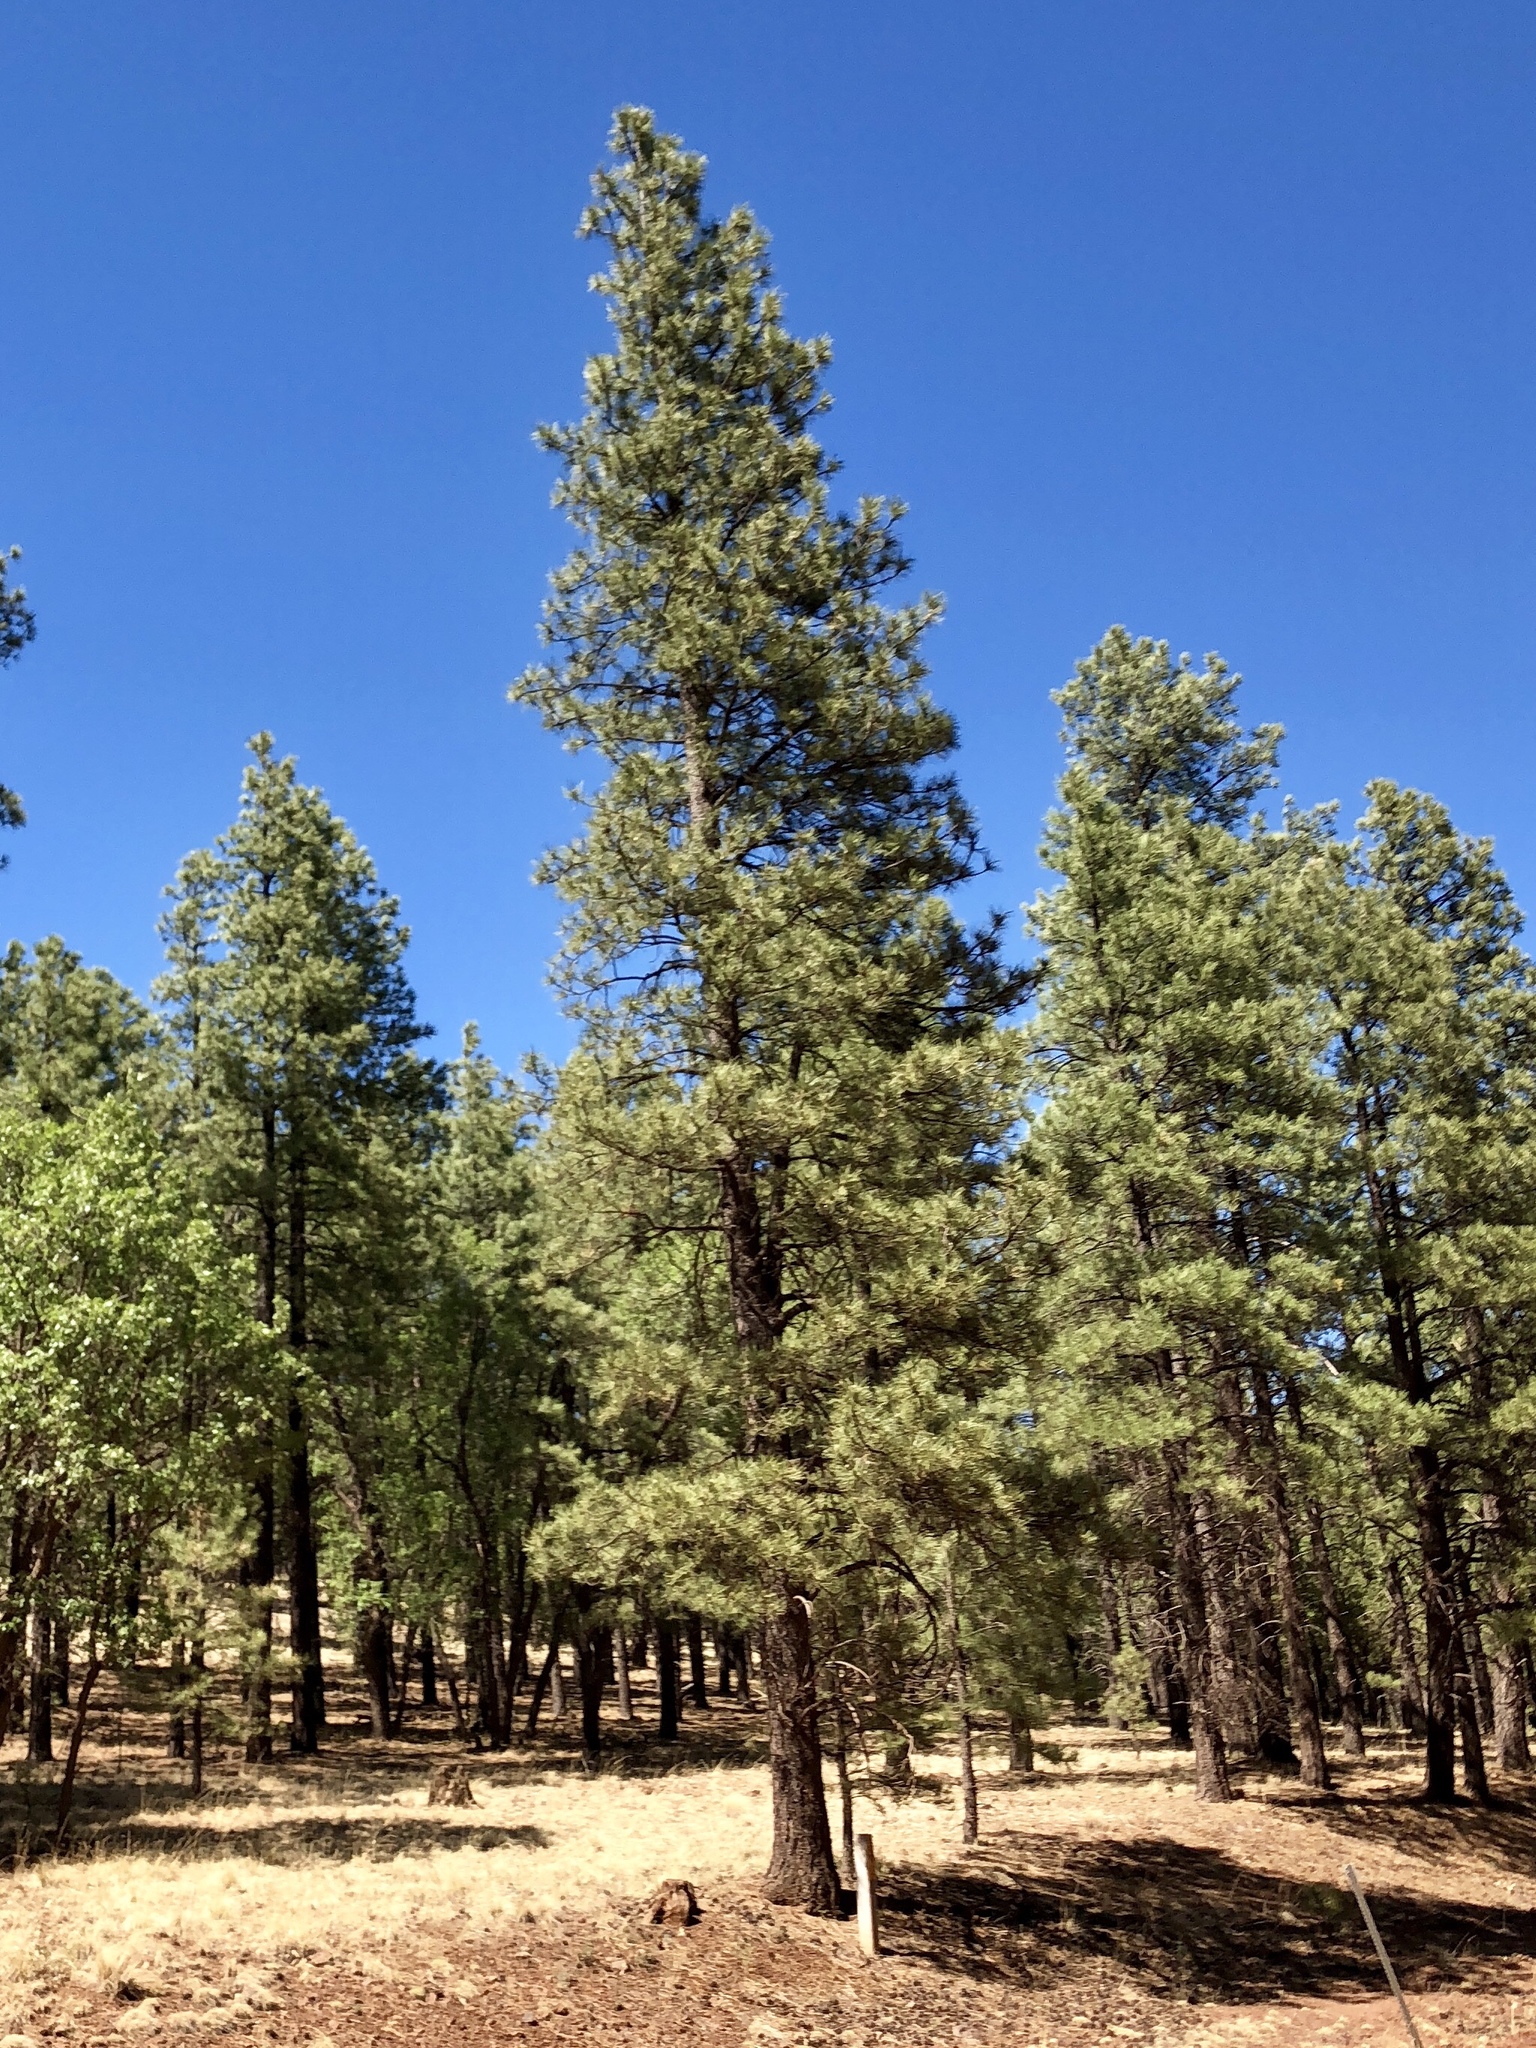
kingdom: Plantae
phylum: Tracheophyta
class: Pinopsida
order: Pinales
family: Pinaceae
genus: Pinus
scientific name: Pinus ponderosa
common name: Western yellow-pine
